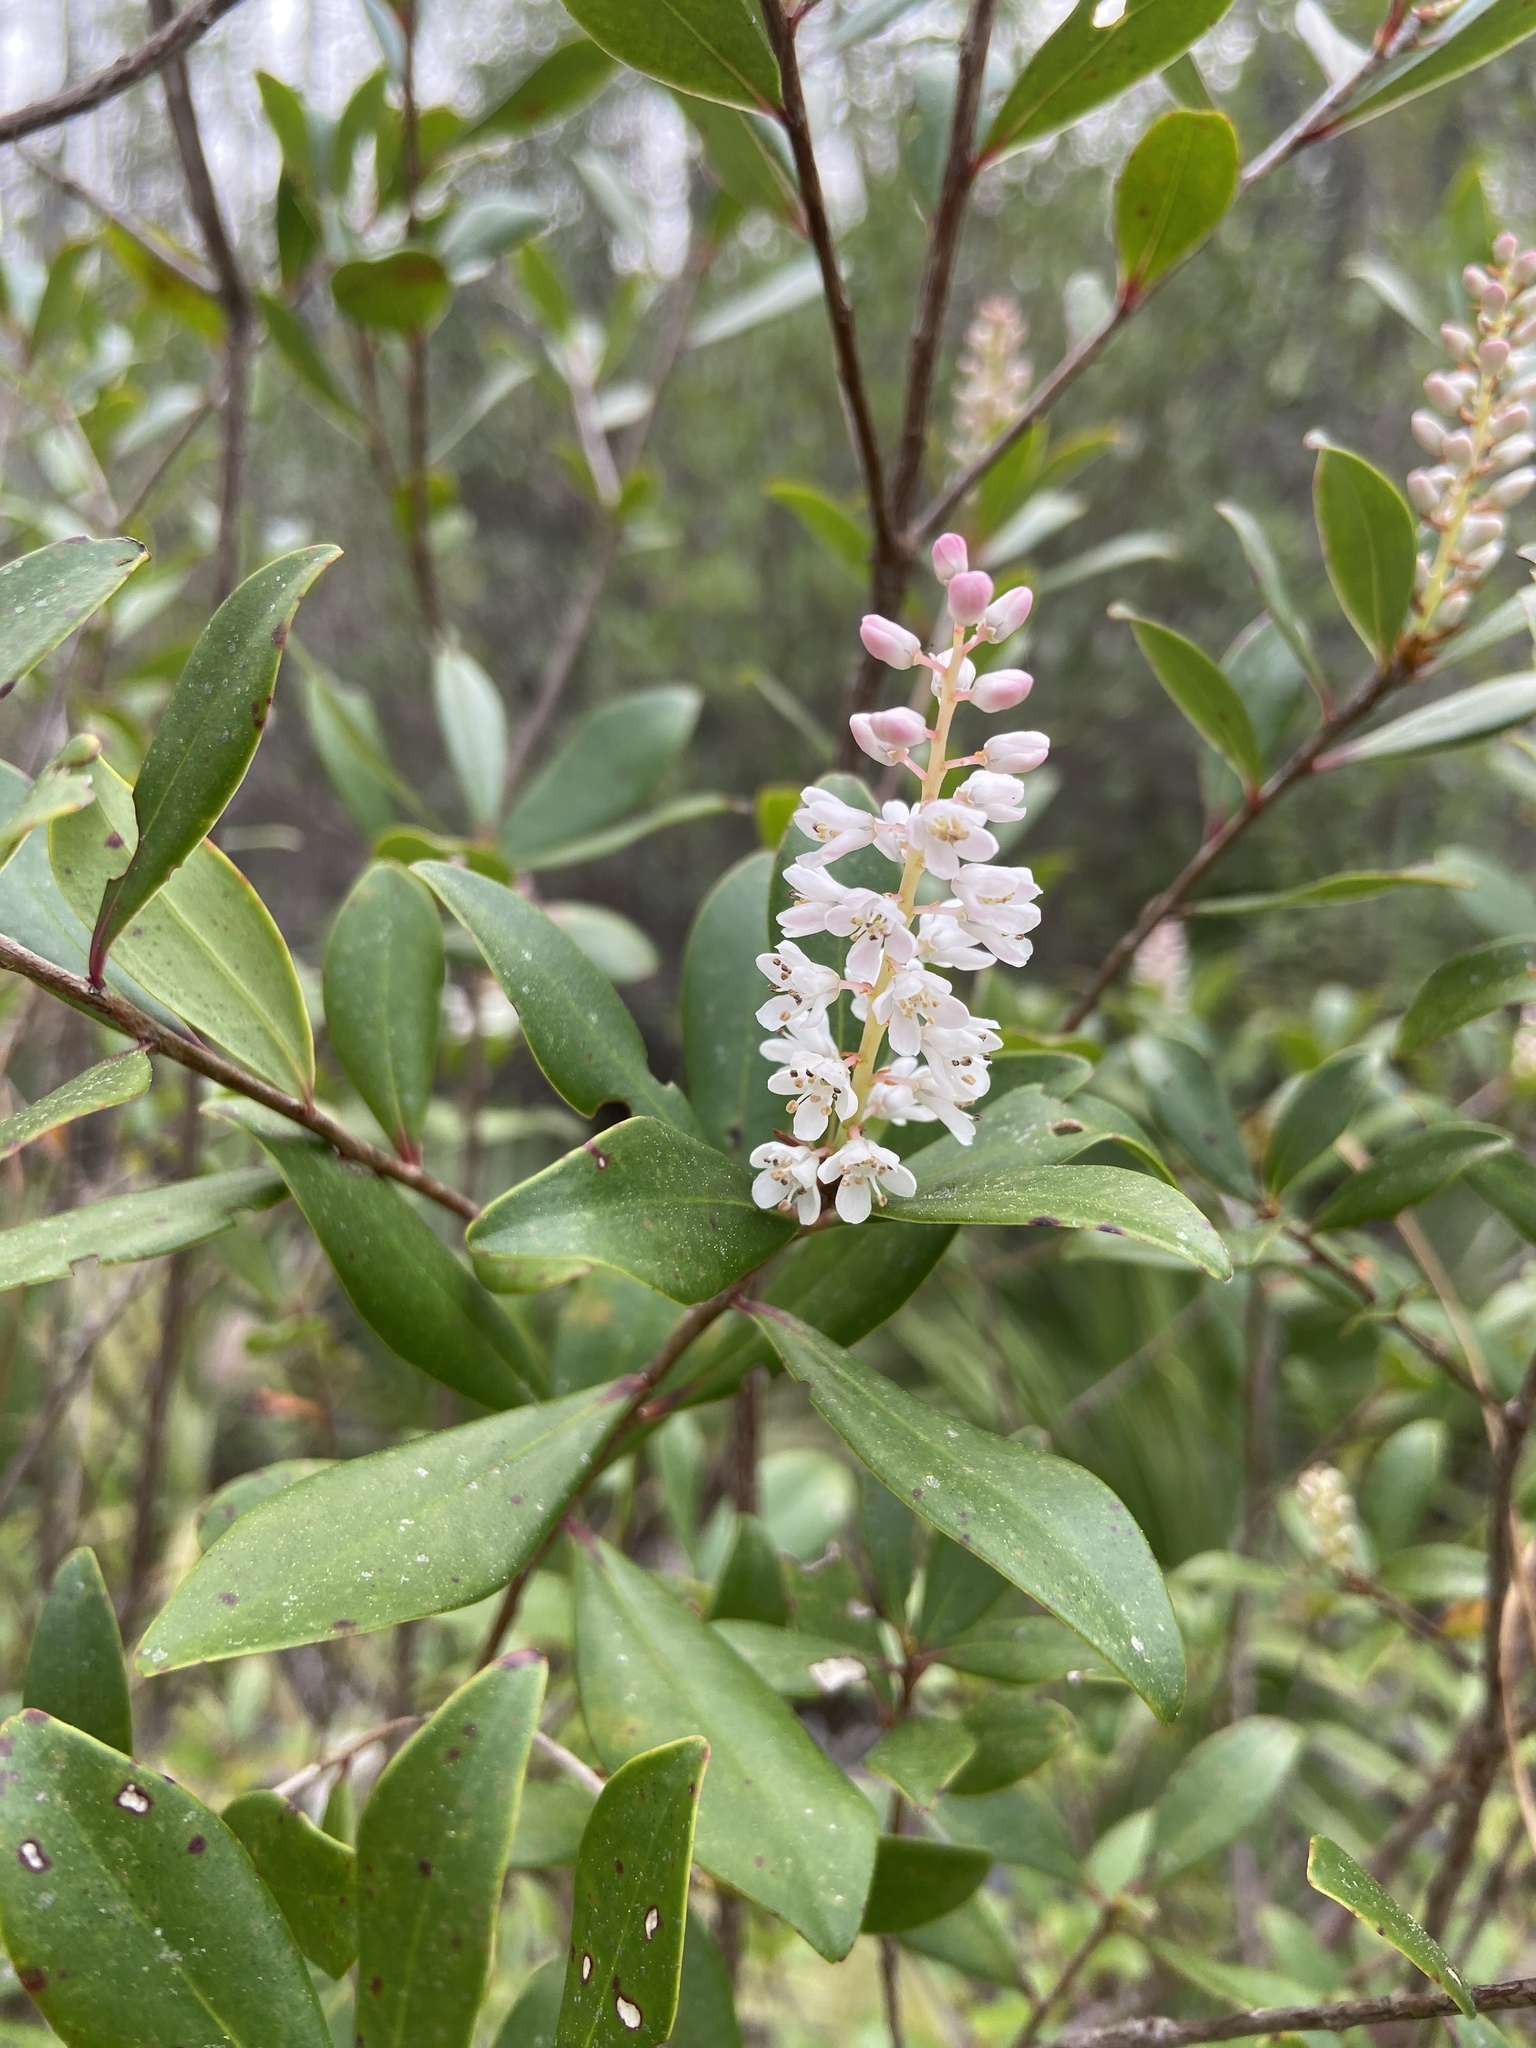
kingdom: Plantae
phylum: Tracheophyta
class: Magnoliopsida
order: Ericales
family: Cyrillaceae
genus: Cliftonia
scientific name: Cliftonia monophylla
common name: Titi
